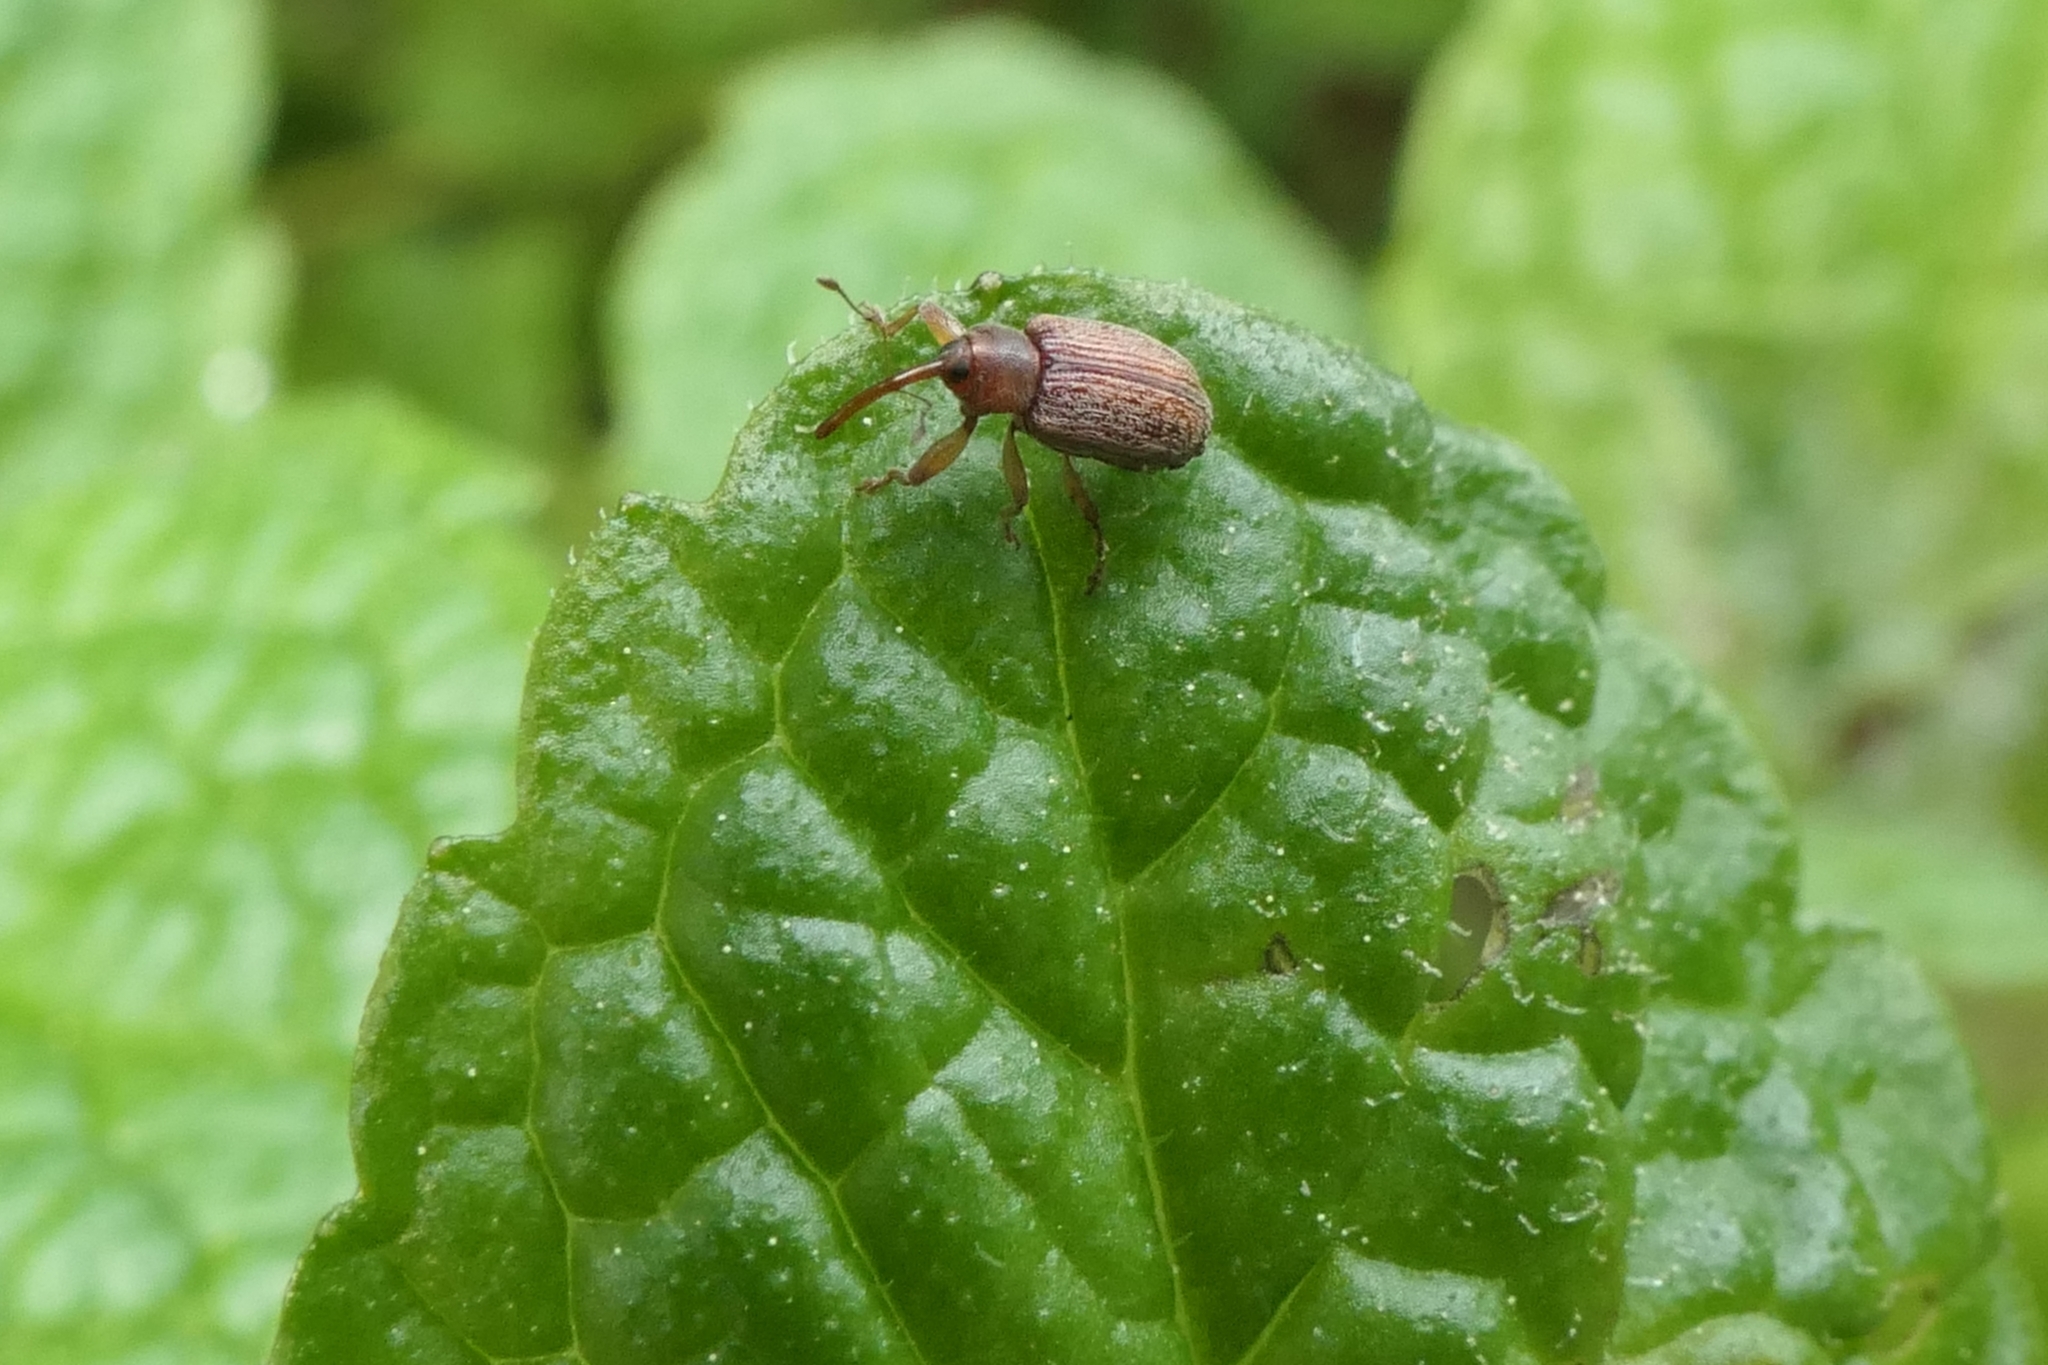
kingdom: Animalia
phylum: Arthropoda
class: Insecta
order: Coleoptera
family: Curculionidae
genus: Aneuma
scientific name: Aneuma fulvipes
